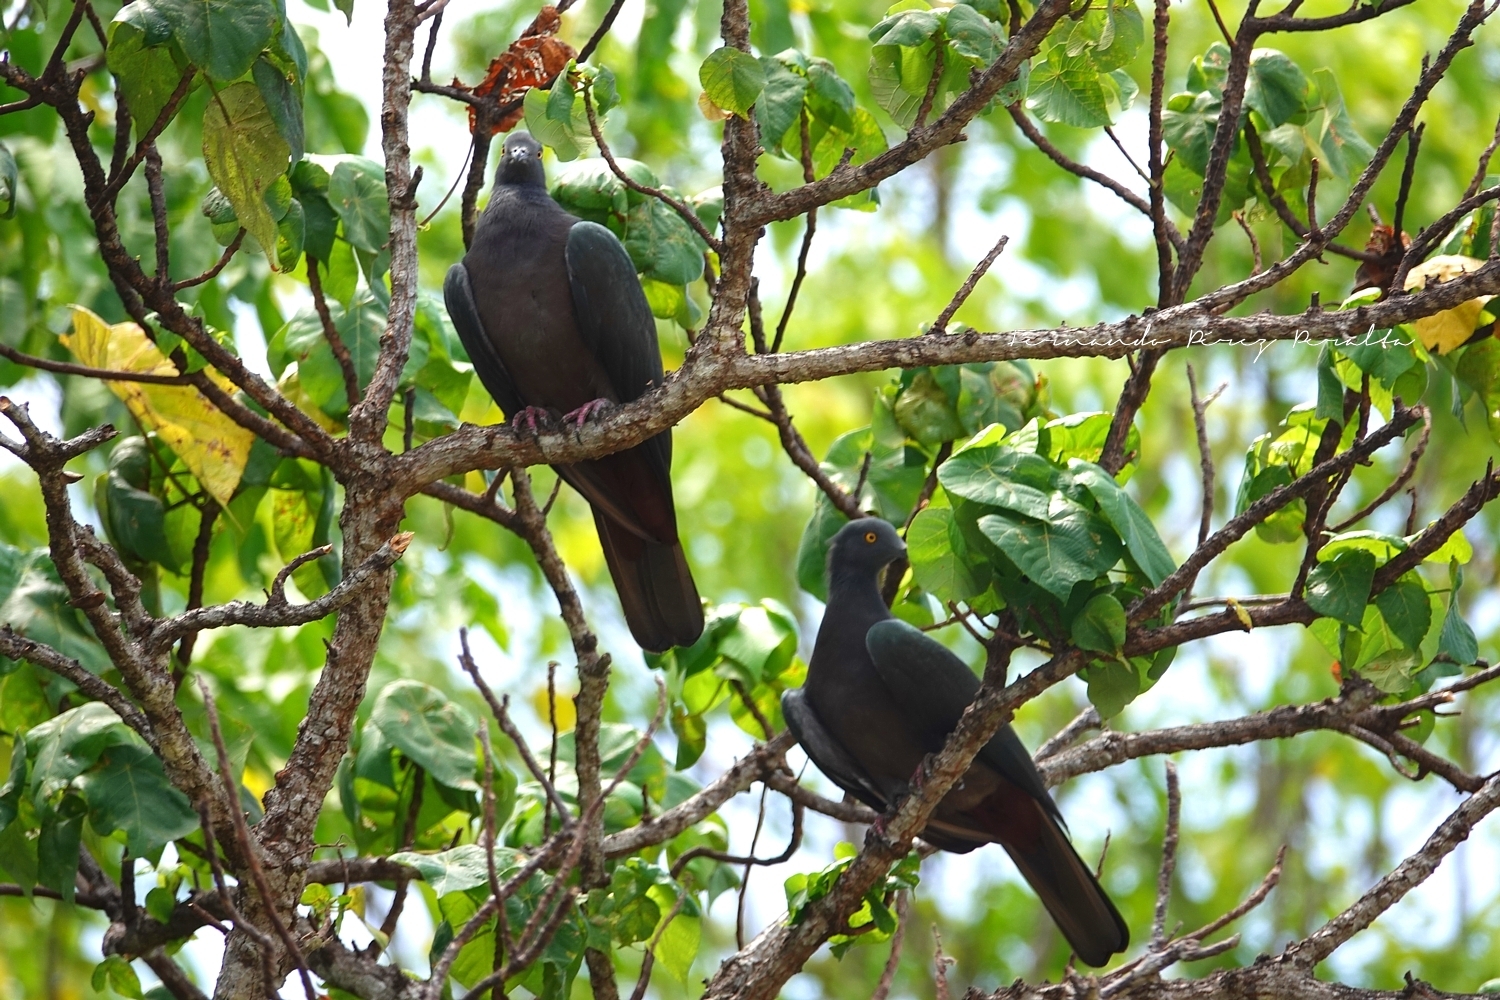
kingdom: Animalia
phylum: Chordata
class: Aves
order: Columbiformes
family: Columbidae
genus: Ducula
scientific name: Ducula whartoni
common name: Christmas imperial pigeon
